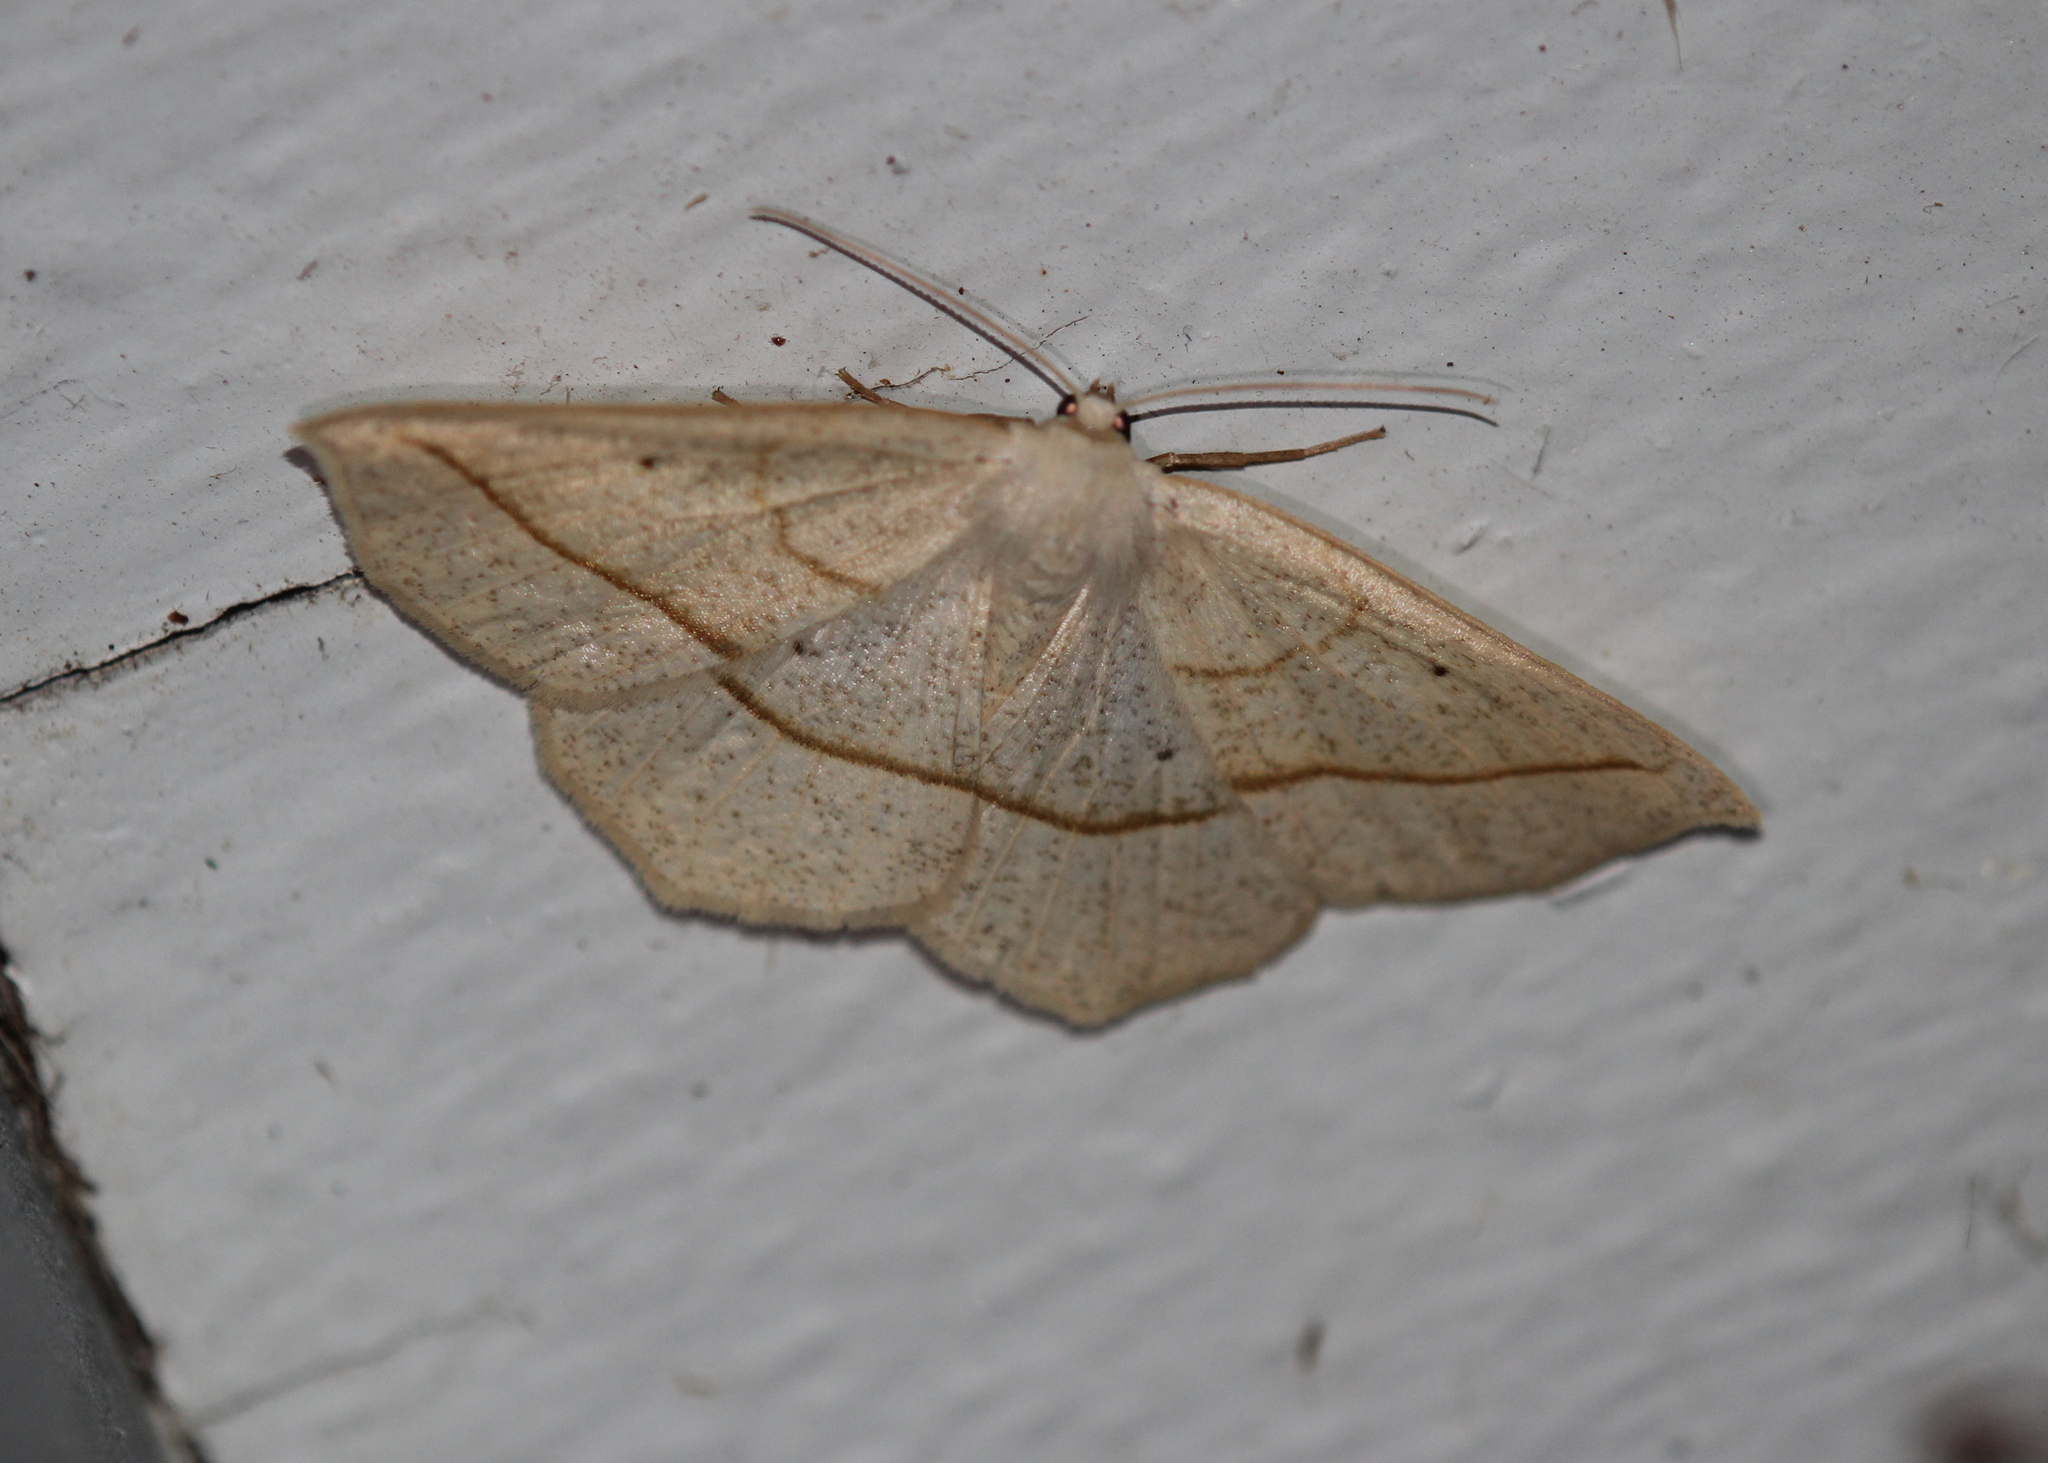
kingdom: Animalia
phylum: Arthropoda
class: Insecta
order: Lepidoptera
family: Geometridae
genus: Eusarca
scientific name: Eusarca confusaria
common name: Confused eusarca
